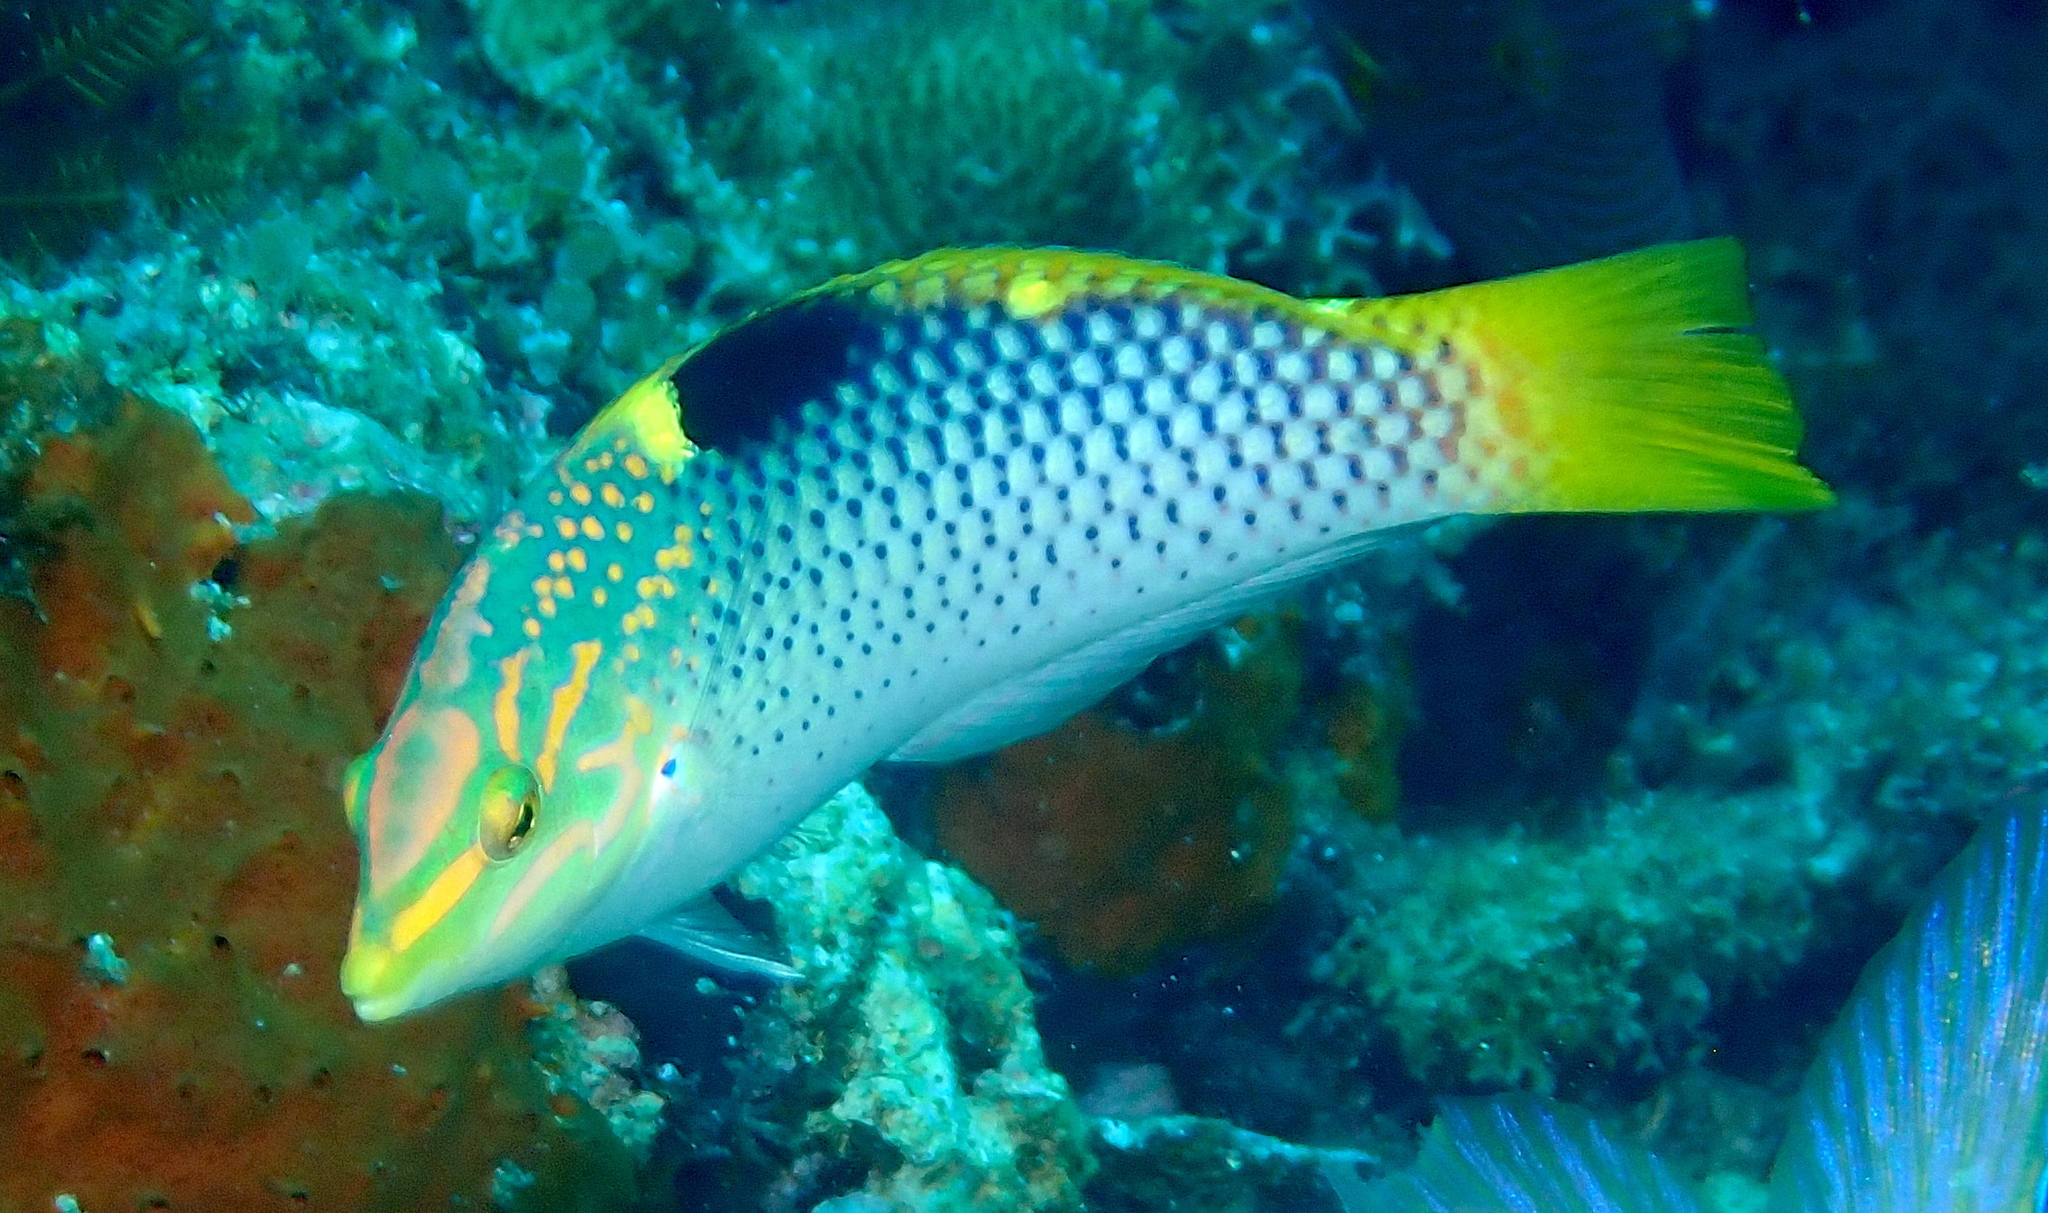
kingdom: Animalia
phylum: Chordata
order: Perciformes
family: Labridae
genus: Halichoeres
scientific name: Halichoeres hortulanus
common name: Checkerboard wrasse
